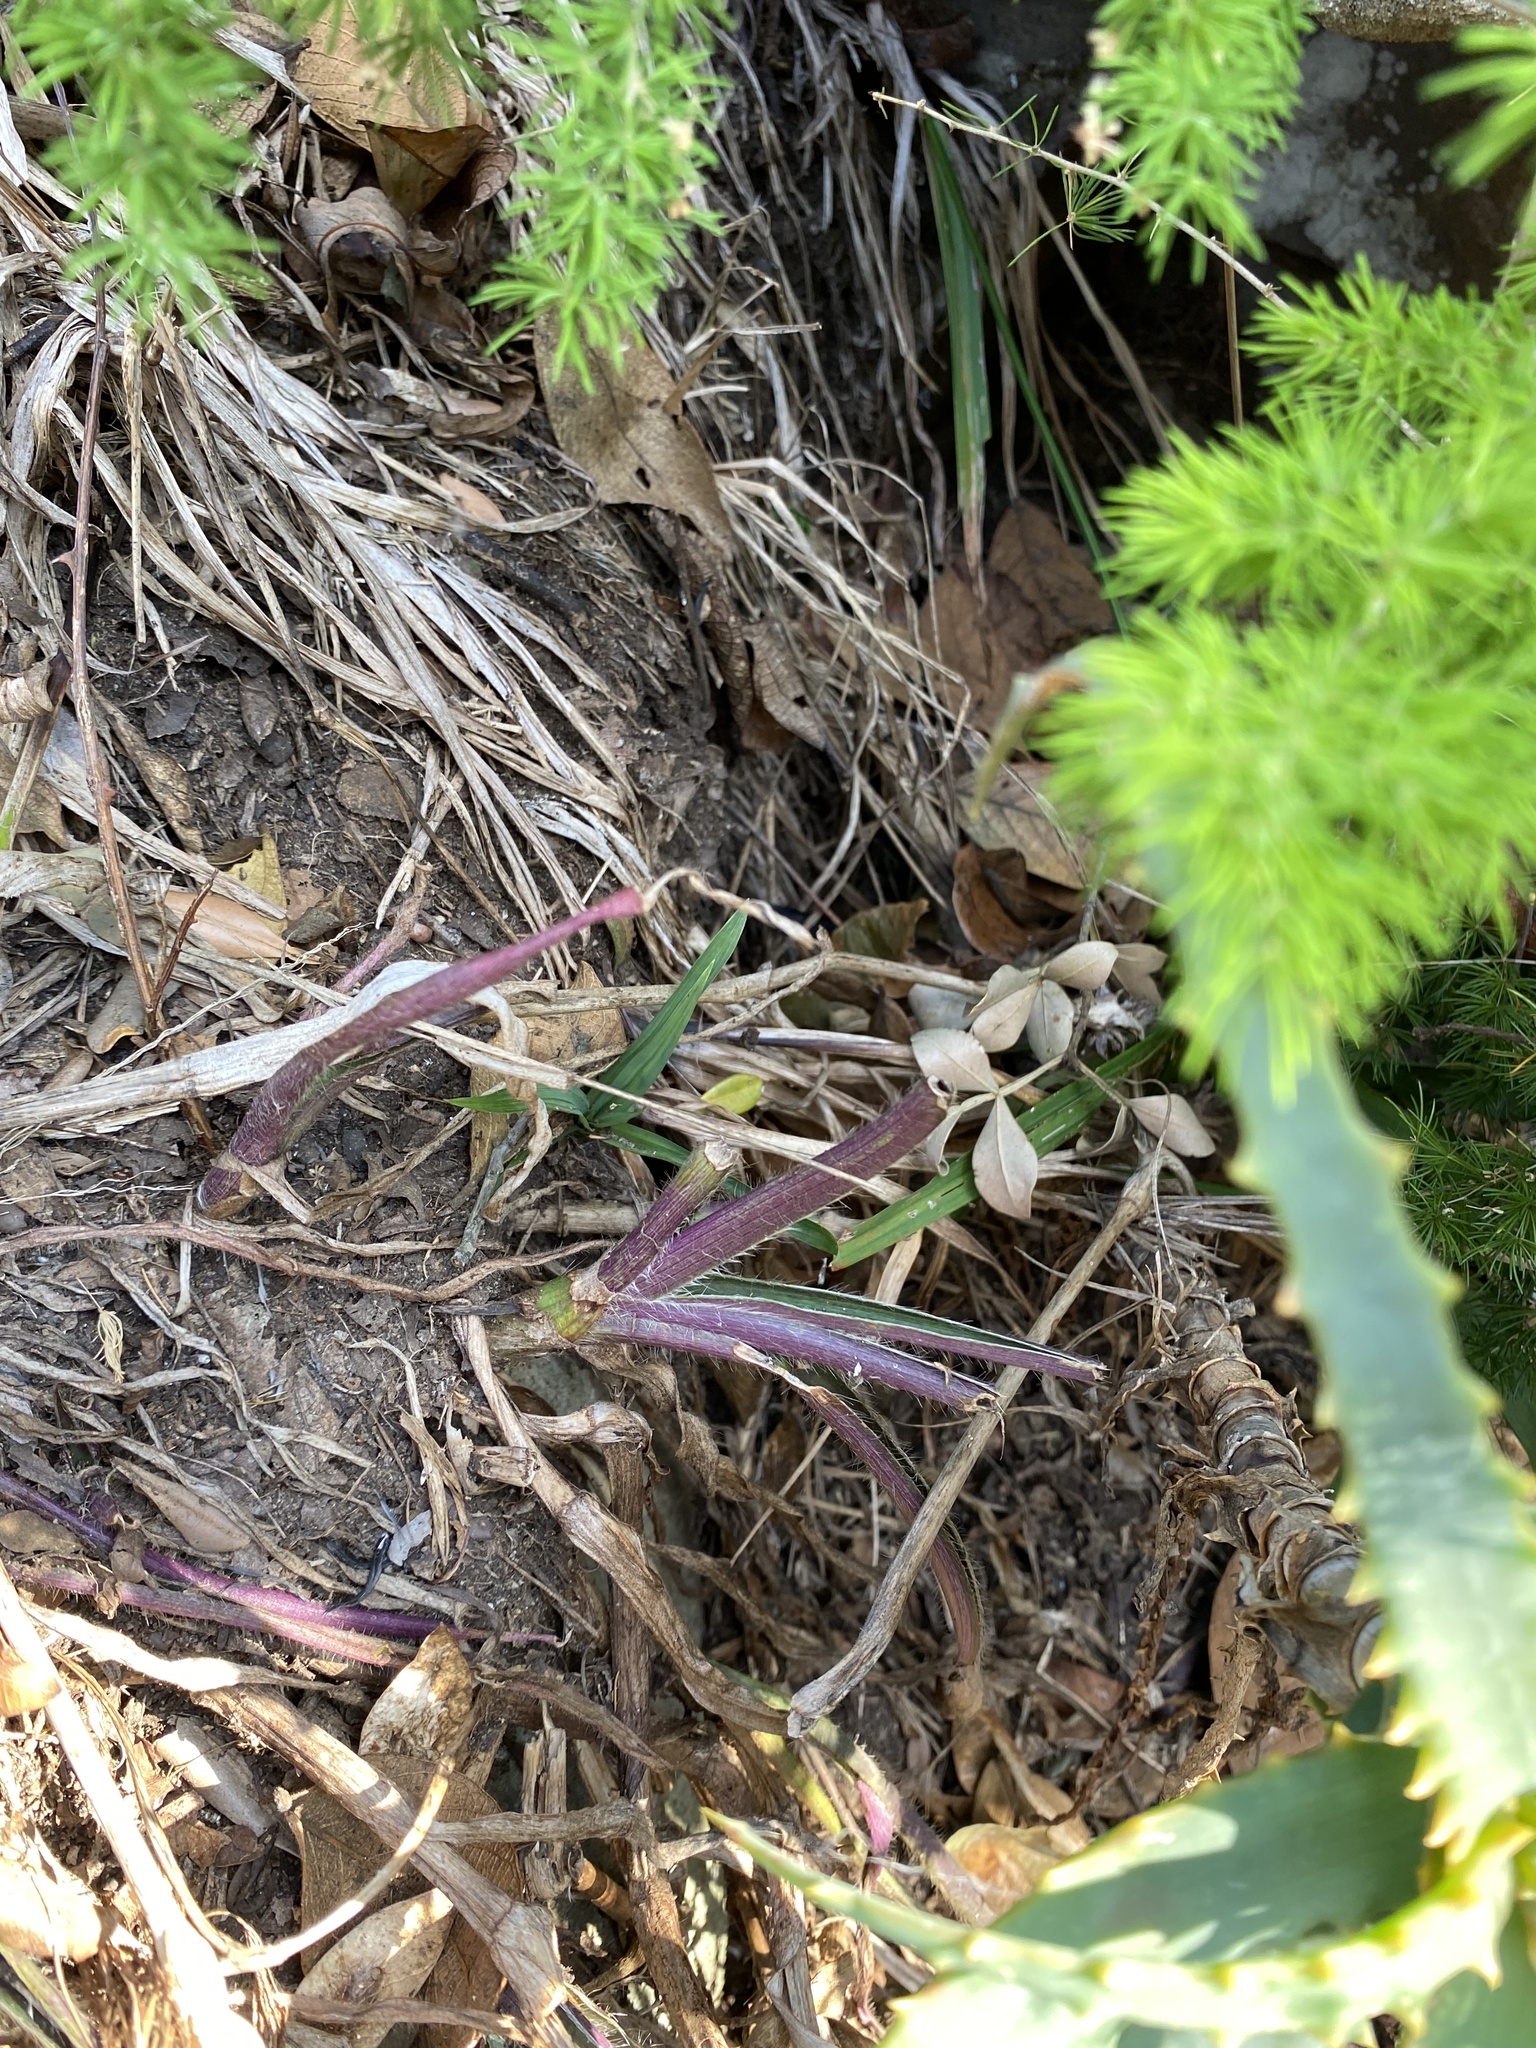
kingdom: Plantae
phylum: Tracheophyta
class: Liliopsida
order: Commelinales
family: Commelinaceae
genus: Cyanotis
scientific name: Cyanotis speciosa
